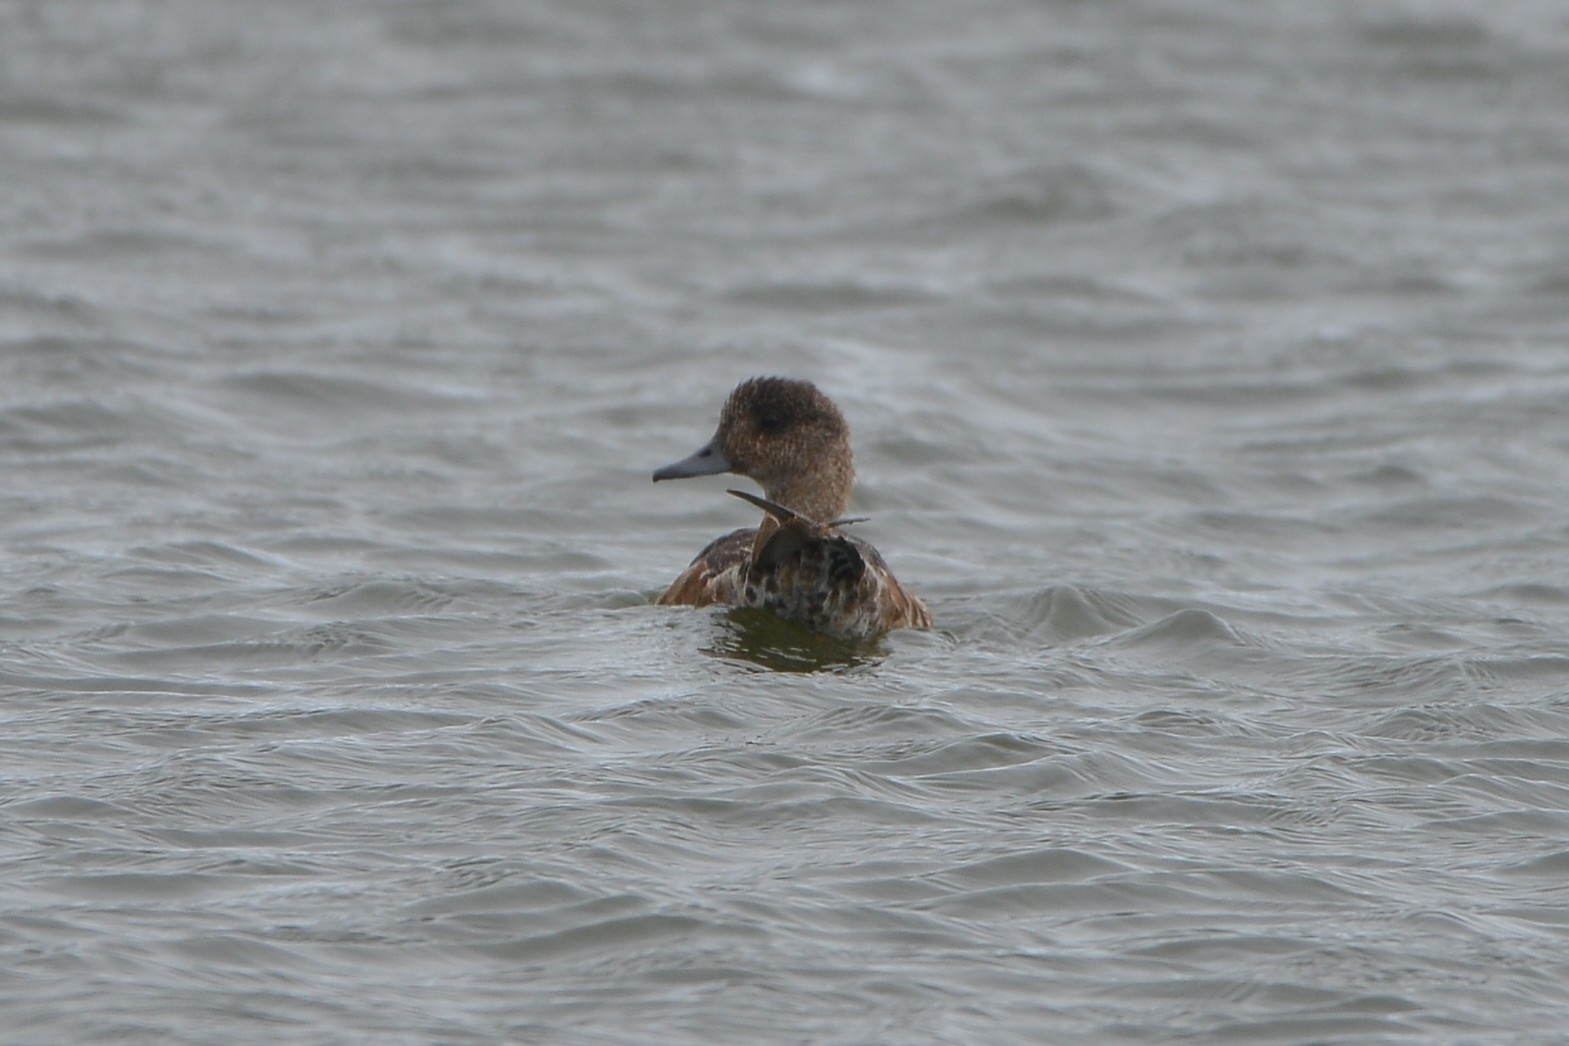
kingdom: Animalia
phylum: Chordata
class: Aves
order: Anseriformes
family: Anatidae
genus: Mareca
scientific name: Mareca penelope
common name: Eurasian wigeon
